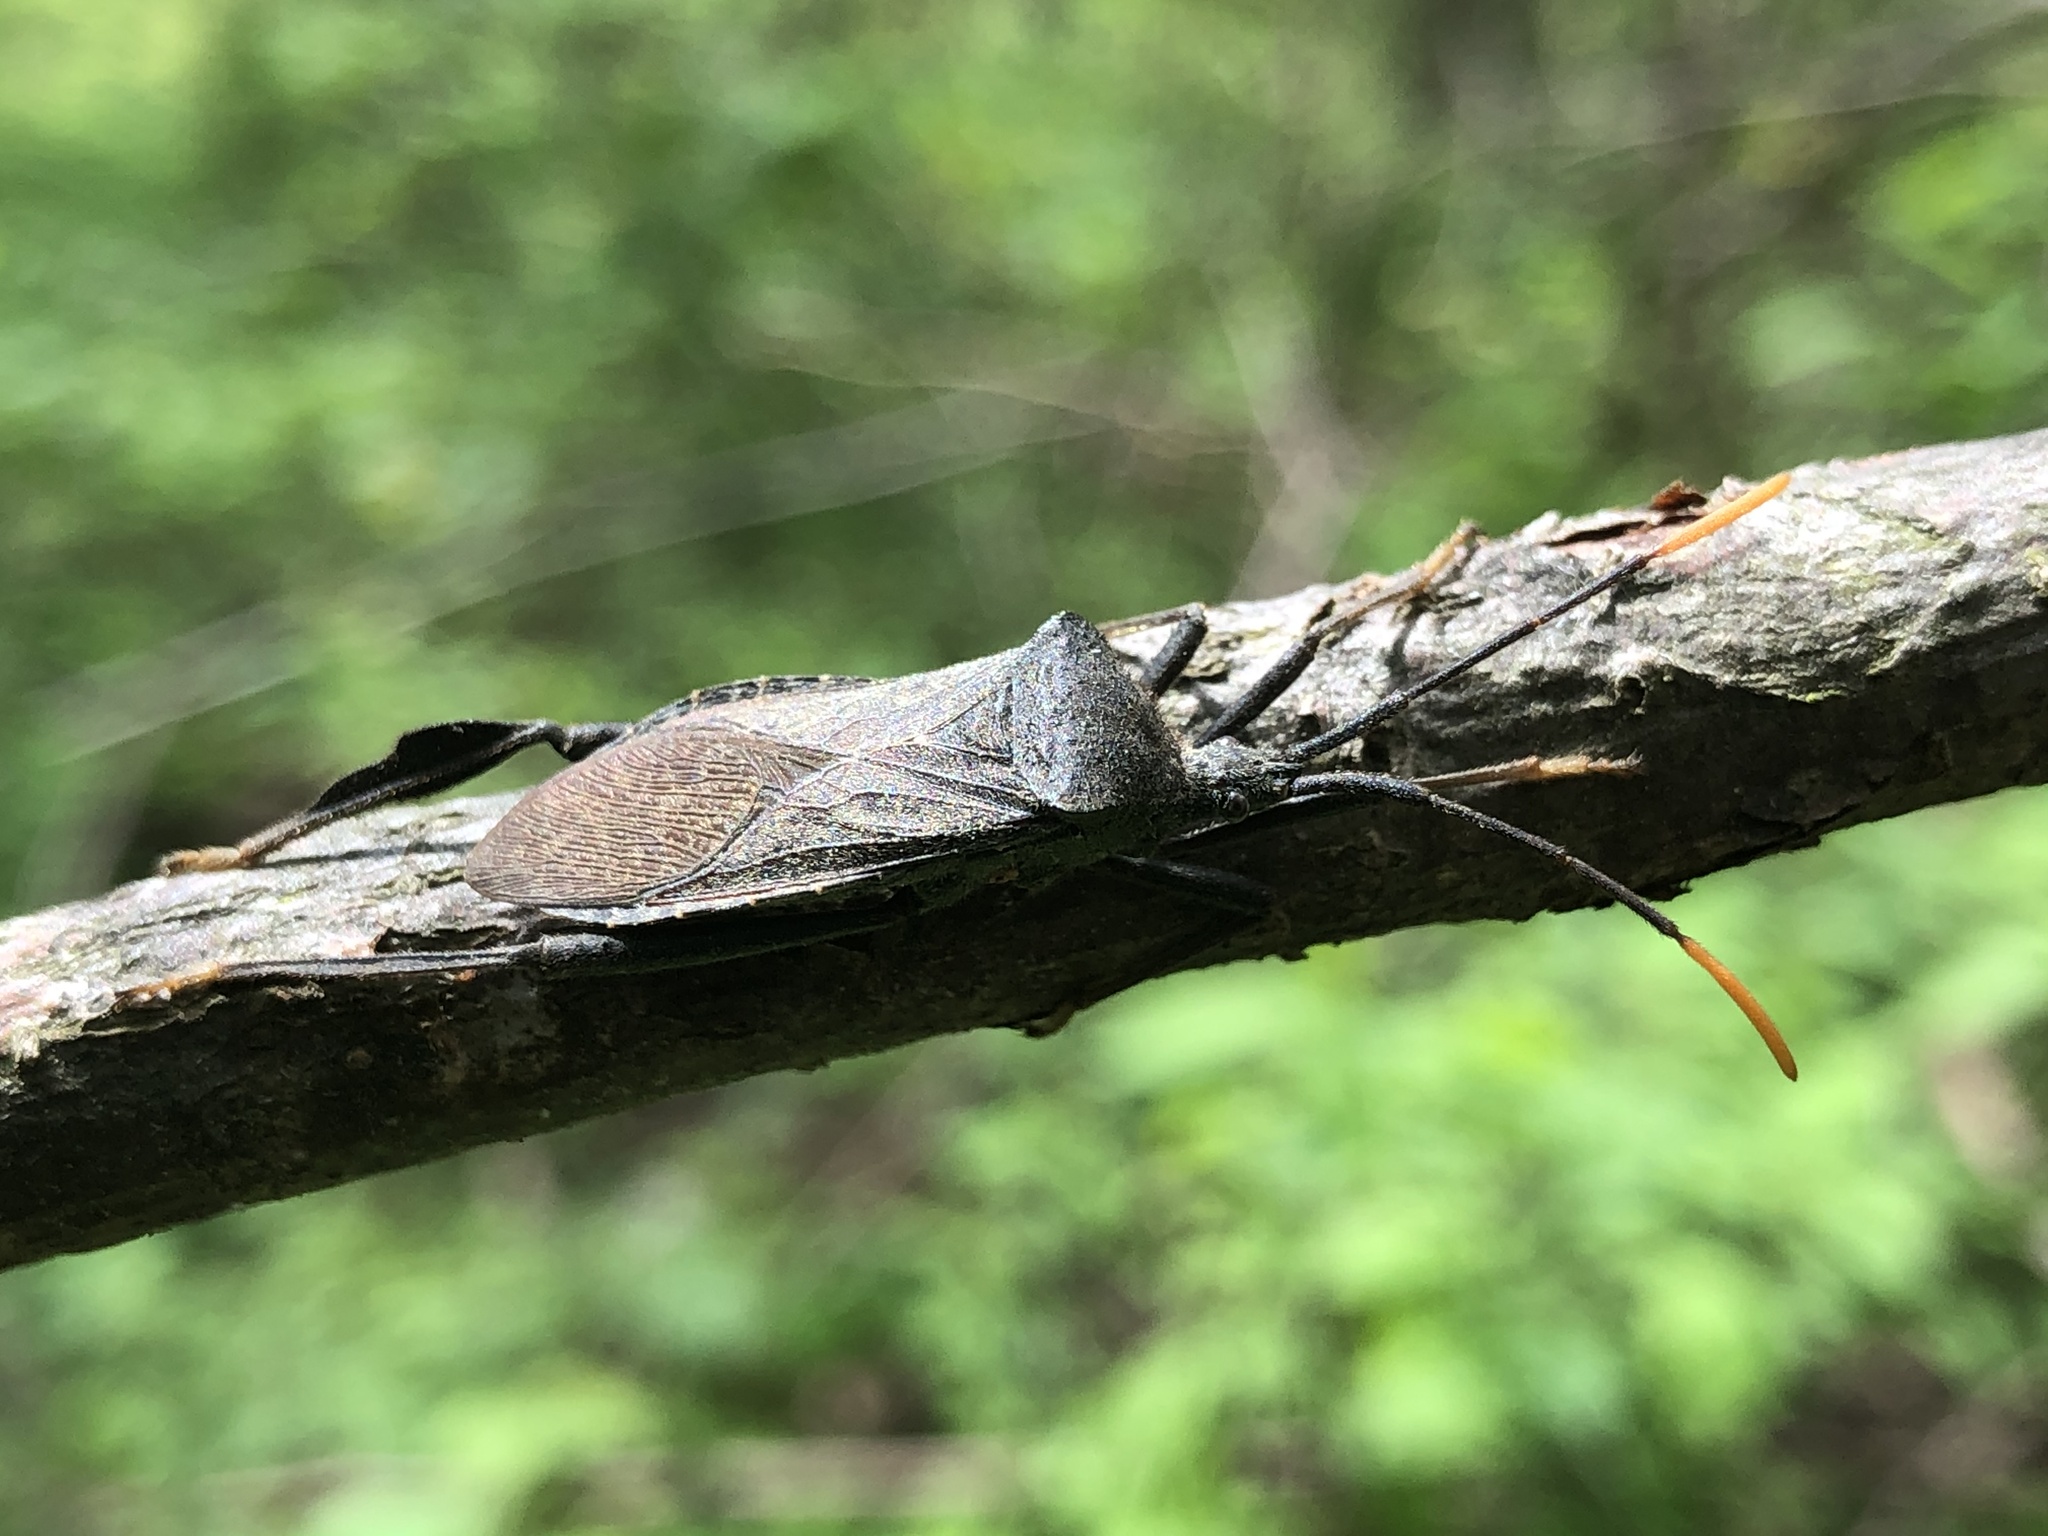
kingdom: Animalia
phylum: Arthropoda
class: Insecta
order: Hemiptera
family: Coreidae
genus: Acanthocephala
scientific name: Acanthocephala terminalis
